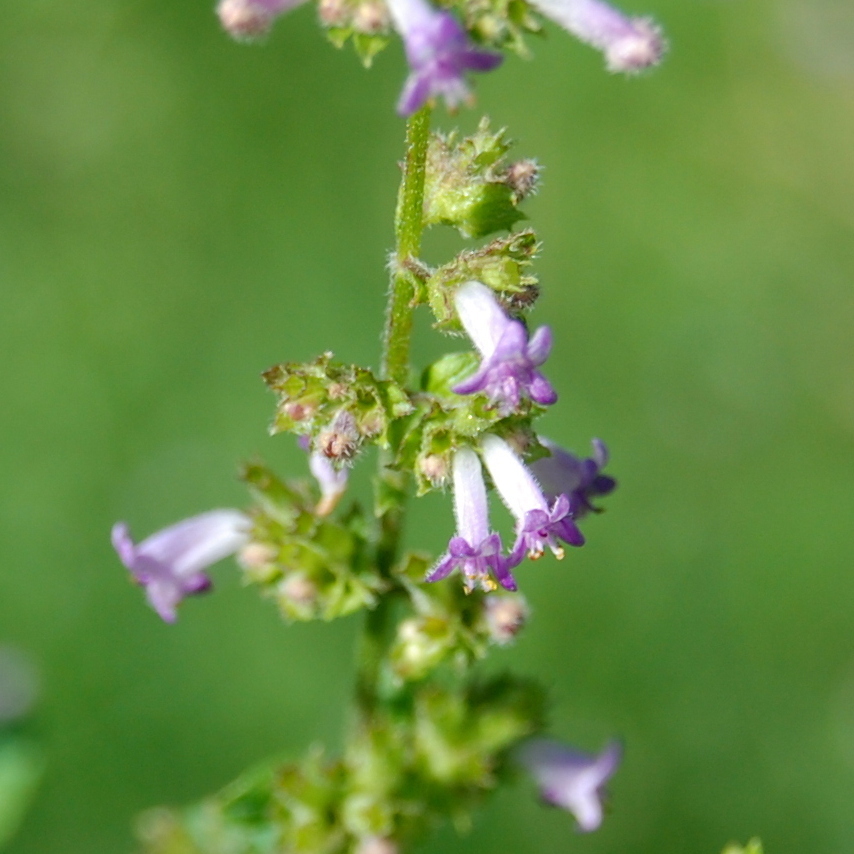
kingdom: Plantae
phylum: Tracheophyta
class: Magnoliopsida
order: Lamiales
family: Lamiaceae
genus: Cantinoa
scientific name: Cantinoa mutabilis
